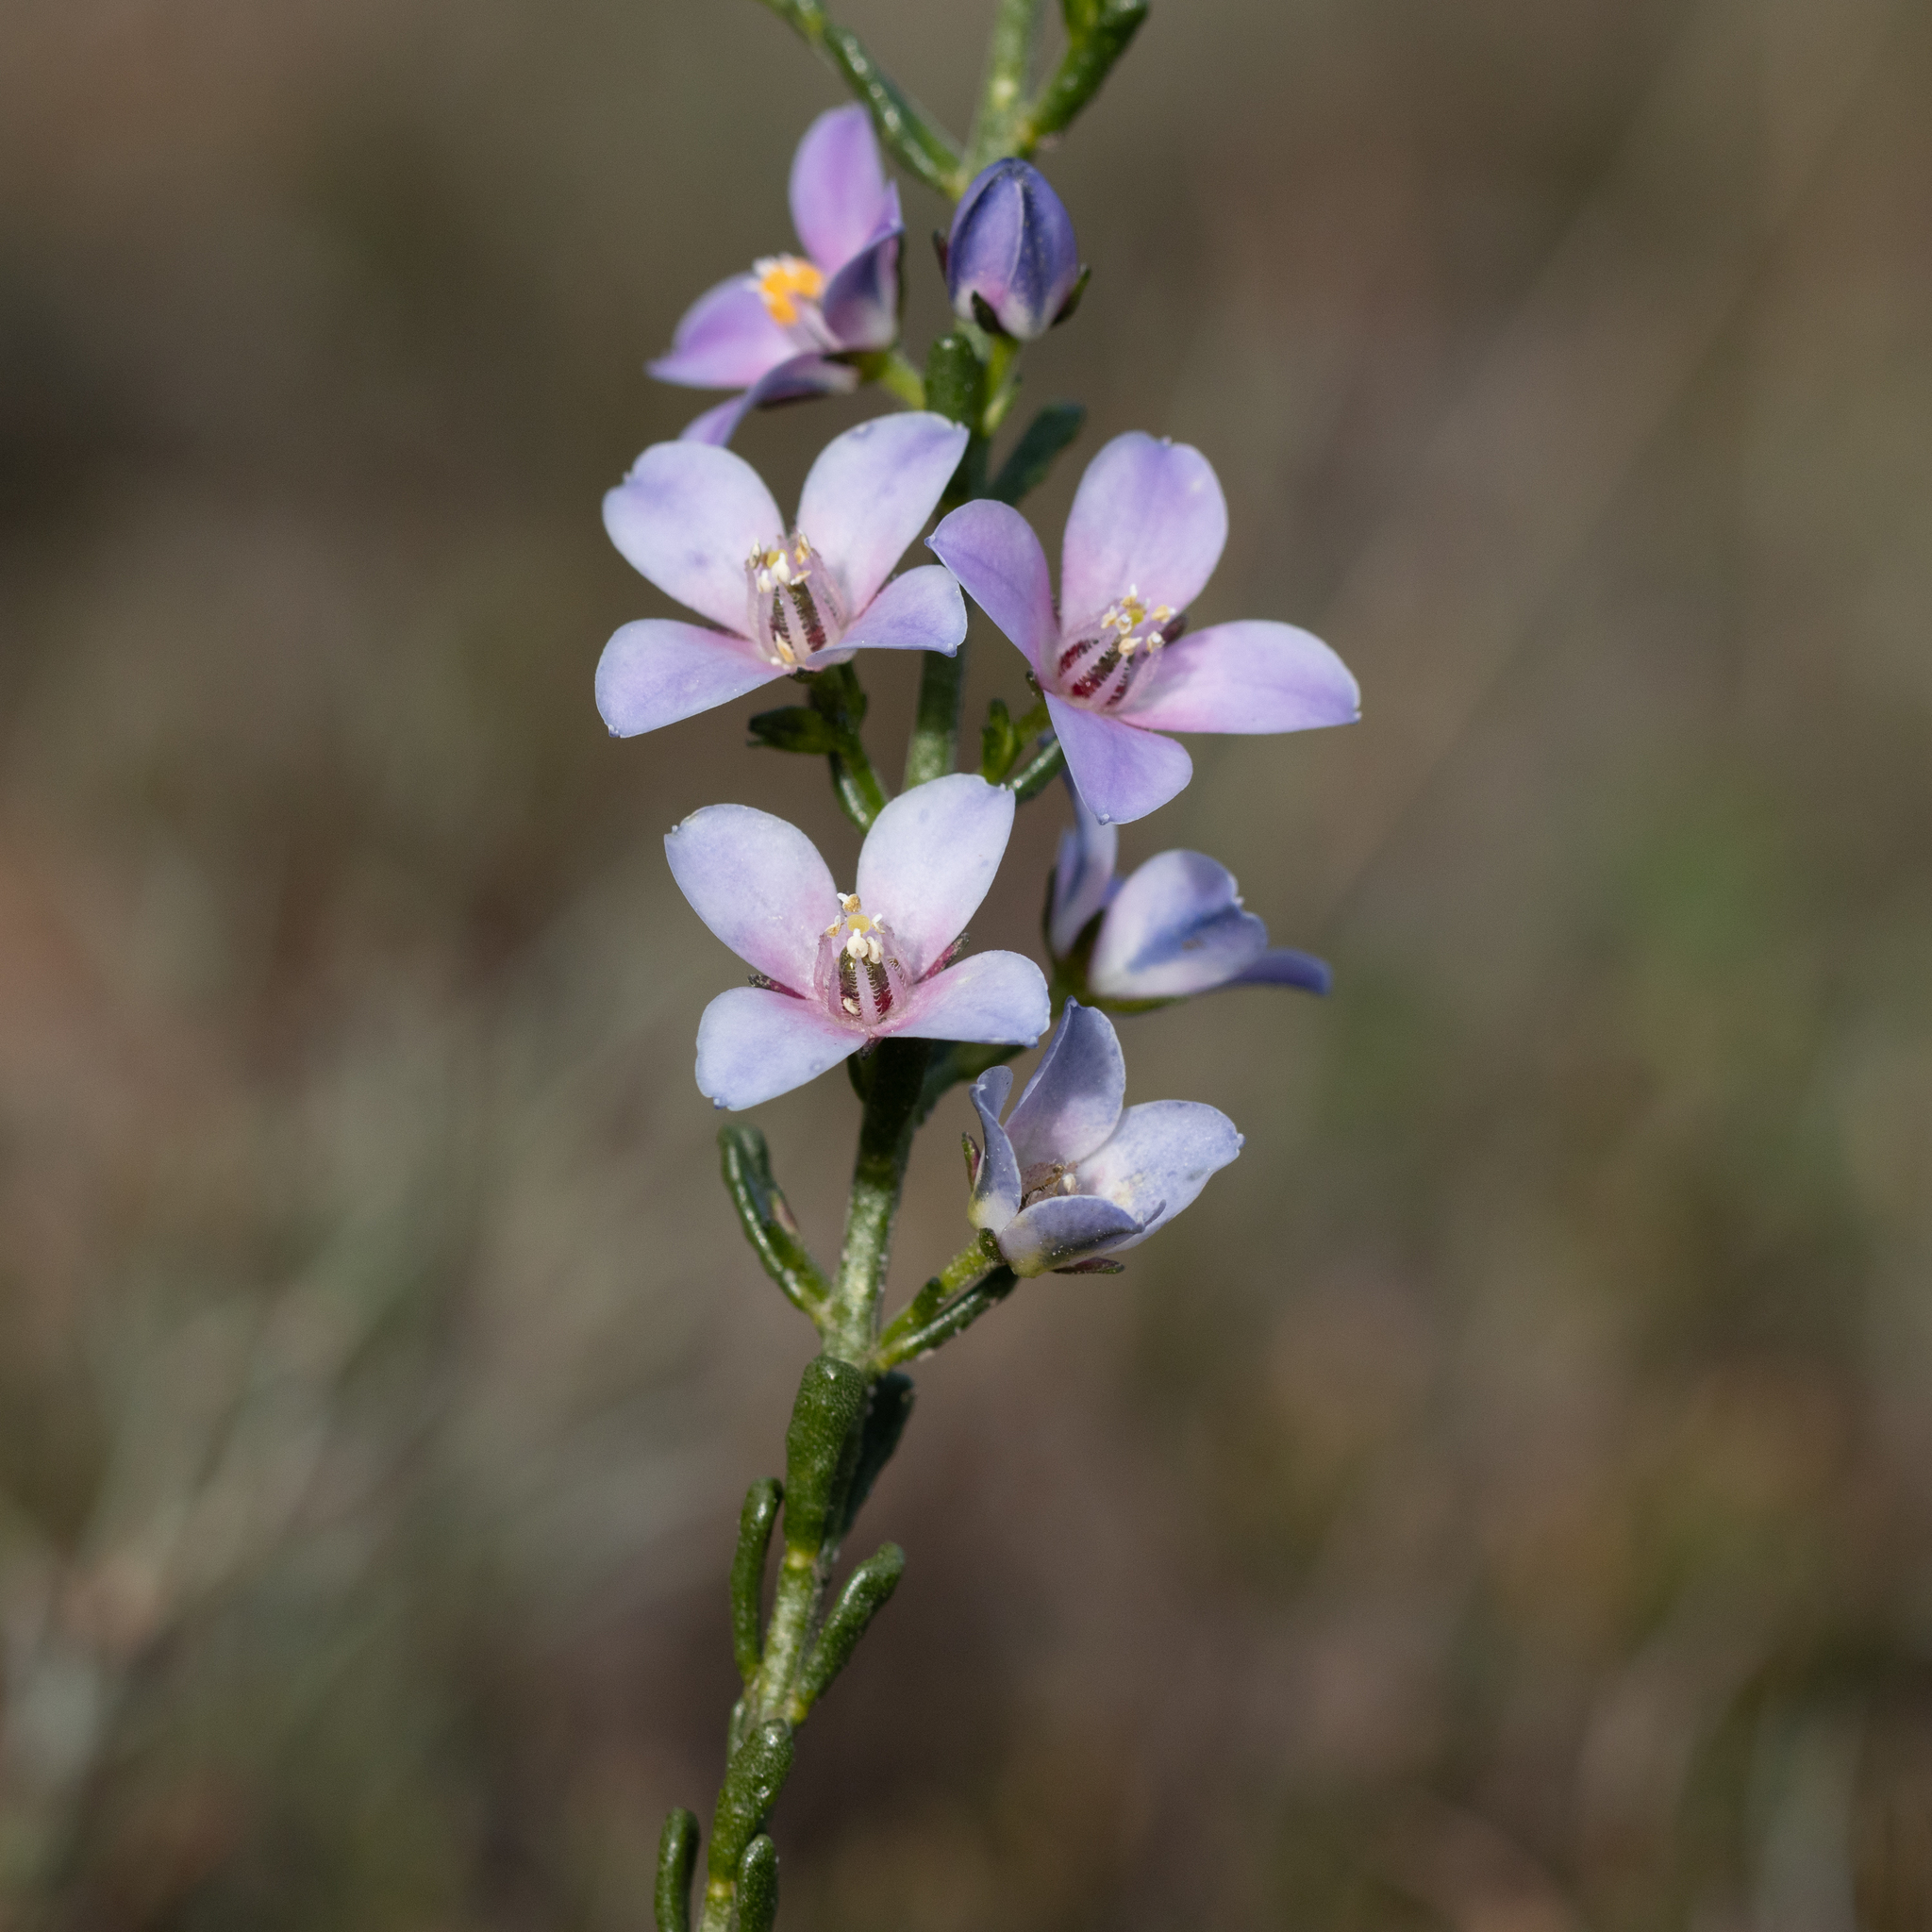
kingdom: Plantae
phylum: Tracheophyta
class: Magnoliopsida
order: Sapindales
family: Rutaceae
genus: Cyanothamnus
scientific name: Cyanothamnus coerulescens
